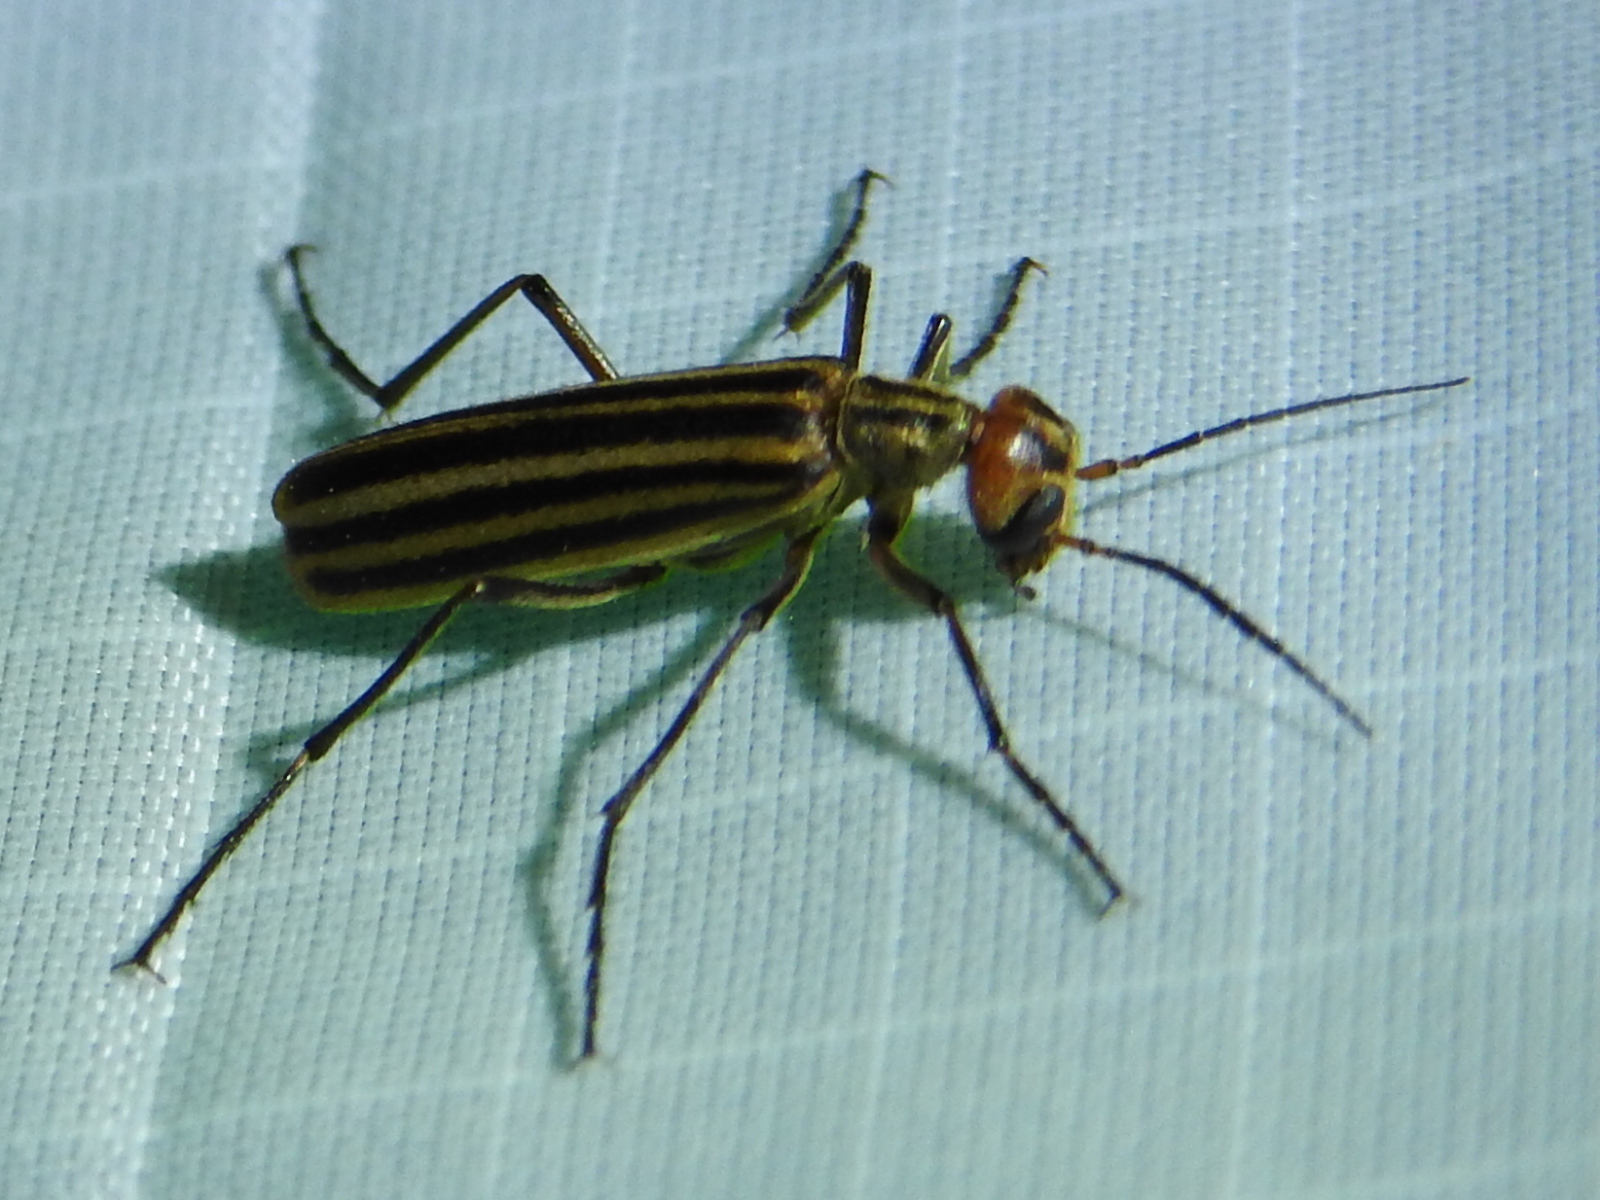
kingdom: Animalia
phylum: Arthropoda
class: Insecta
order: Coleoptera
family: Meloidae
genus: Epicauta
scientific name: Epicauta vittata
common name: Old-fashioned potato beetle
